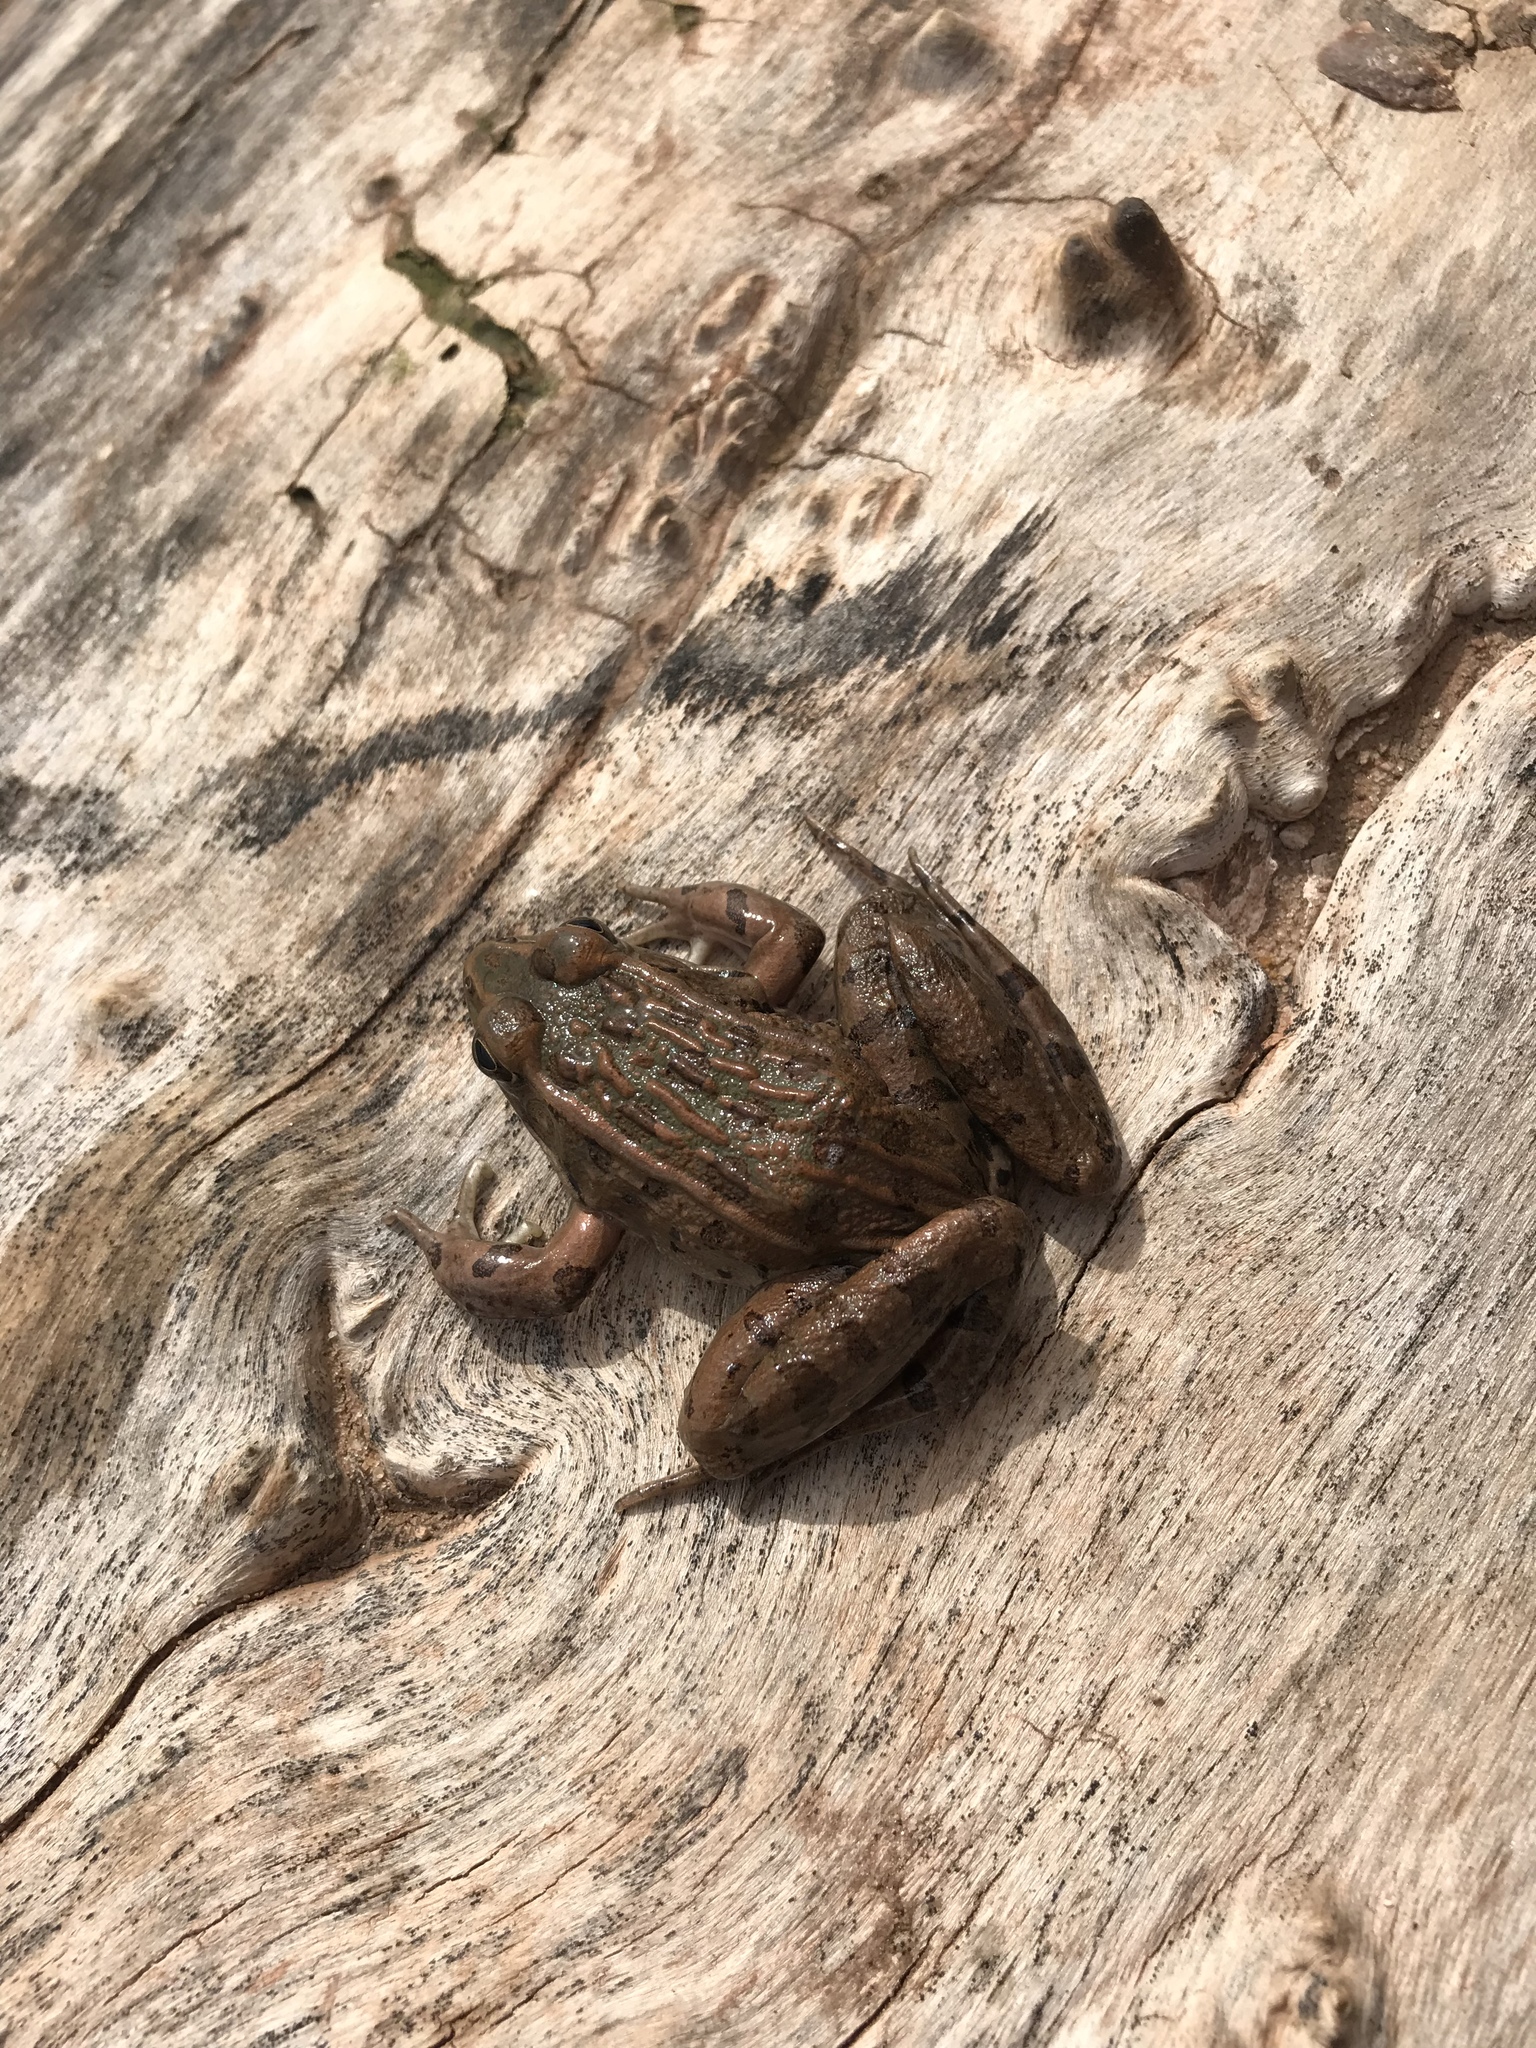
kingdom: Animalia
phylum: Chordata
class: Amphibia
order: Anura
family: Ranidae
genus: Lithobates
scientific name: Lithobates blairi
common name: Plains leopard frog
